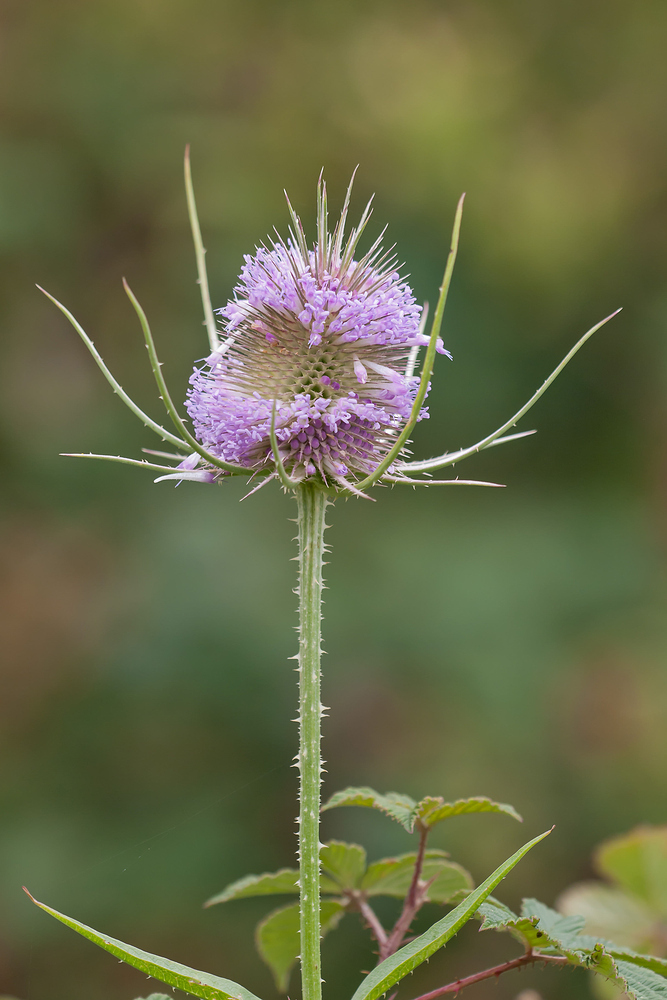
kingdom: Plantae
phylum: Tracheophyta
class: Magnoliopsida
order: Dipsacales
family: Caprifoliaceae
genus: Dipsacus
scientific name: Dipsacus fullonum
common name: Teasel
